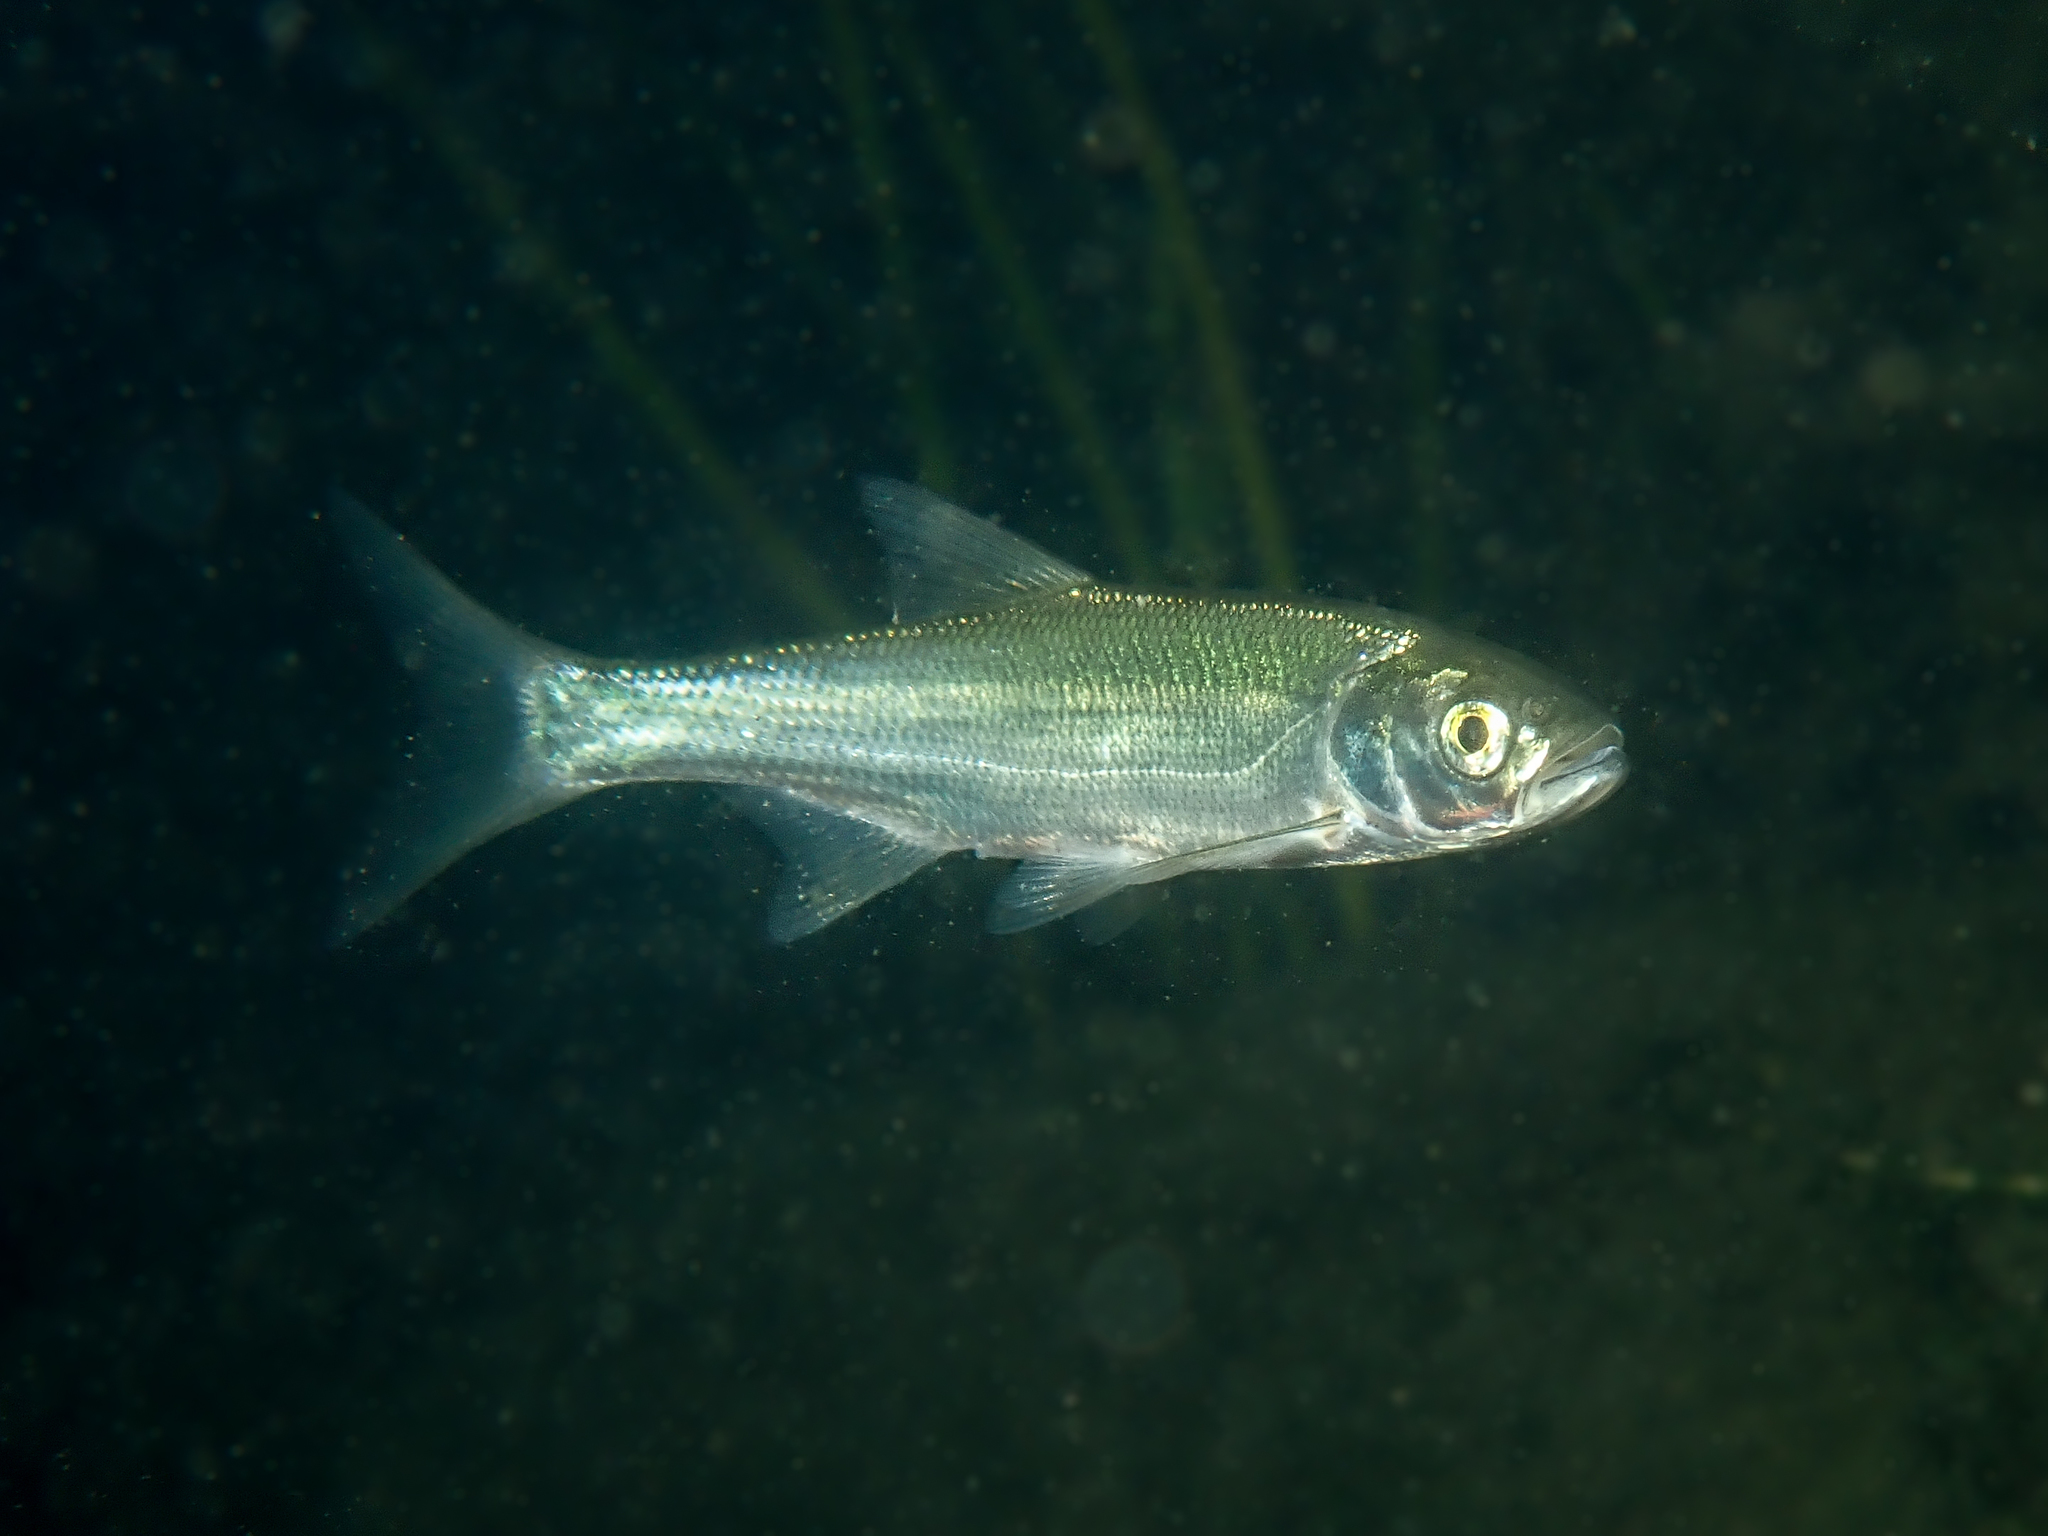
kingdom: Animalia
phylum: Chordata
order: Cypriniformes
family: Cyprinidae
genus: Leuciscus
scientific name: Leuciscus aspius
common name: Asp
